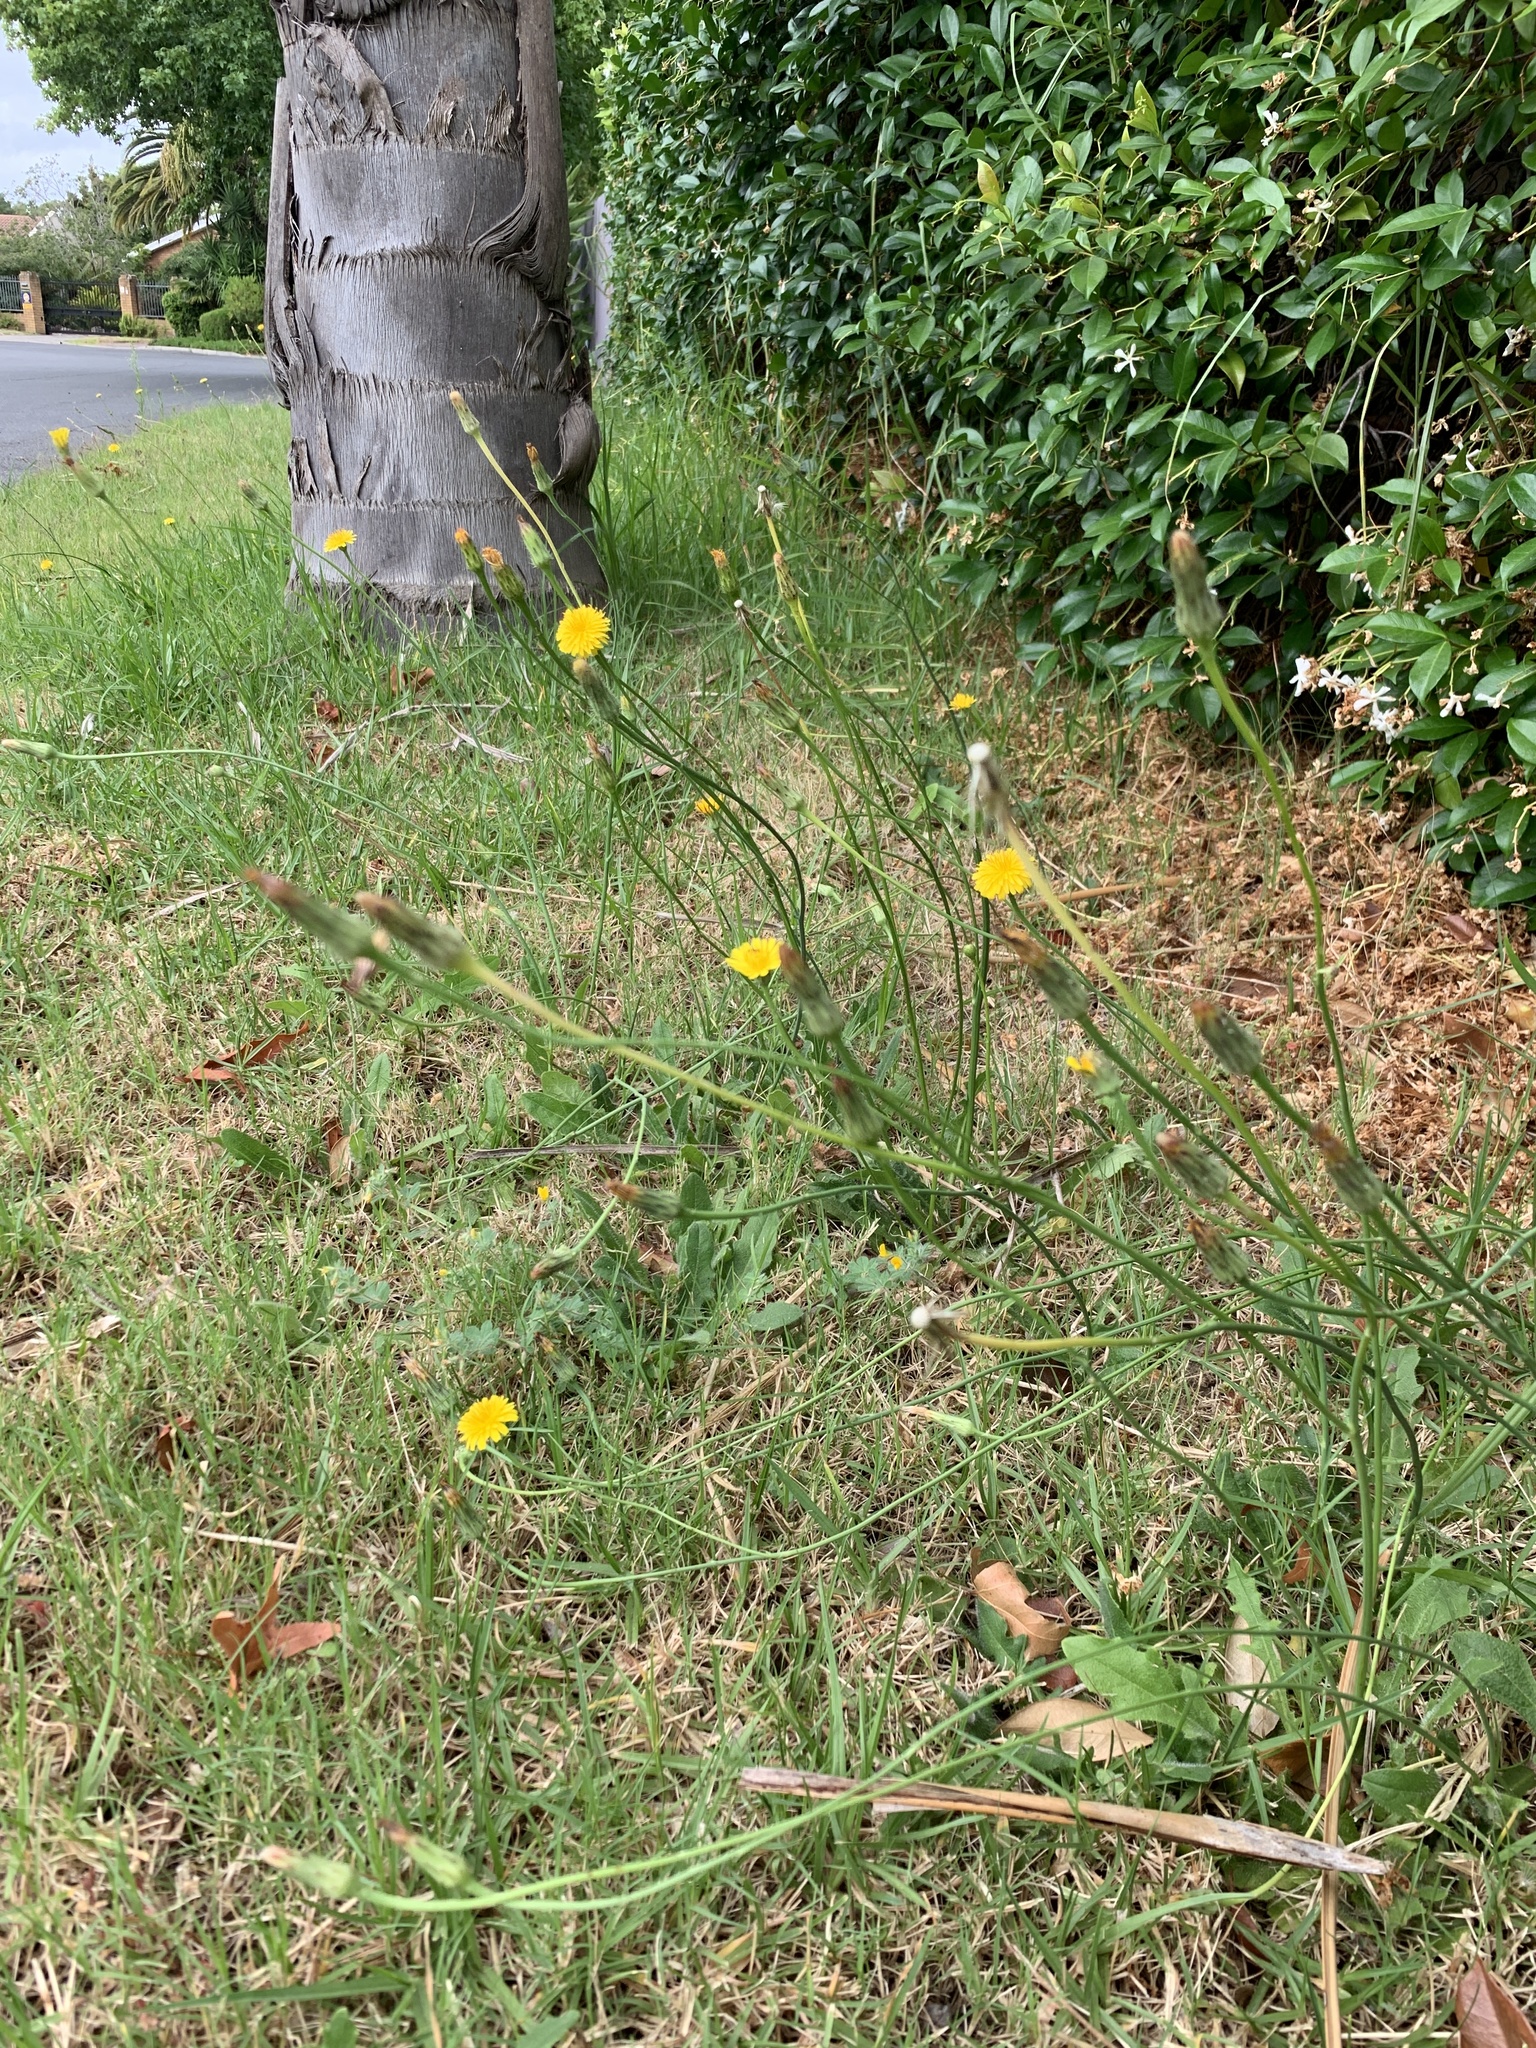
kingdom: Plantae
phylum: Tracheophyta
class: Magnoliopsida
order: Asterales
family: Asteraceae
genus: Hypochaeris
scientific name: Hypochaeris radicata
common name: Flatweed
